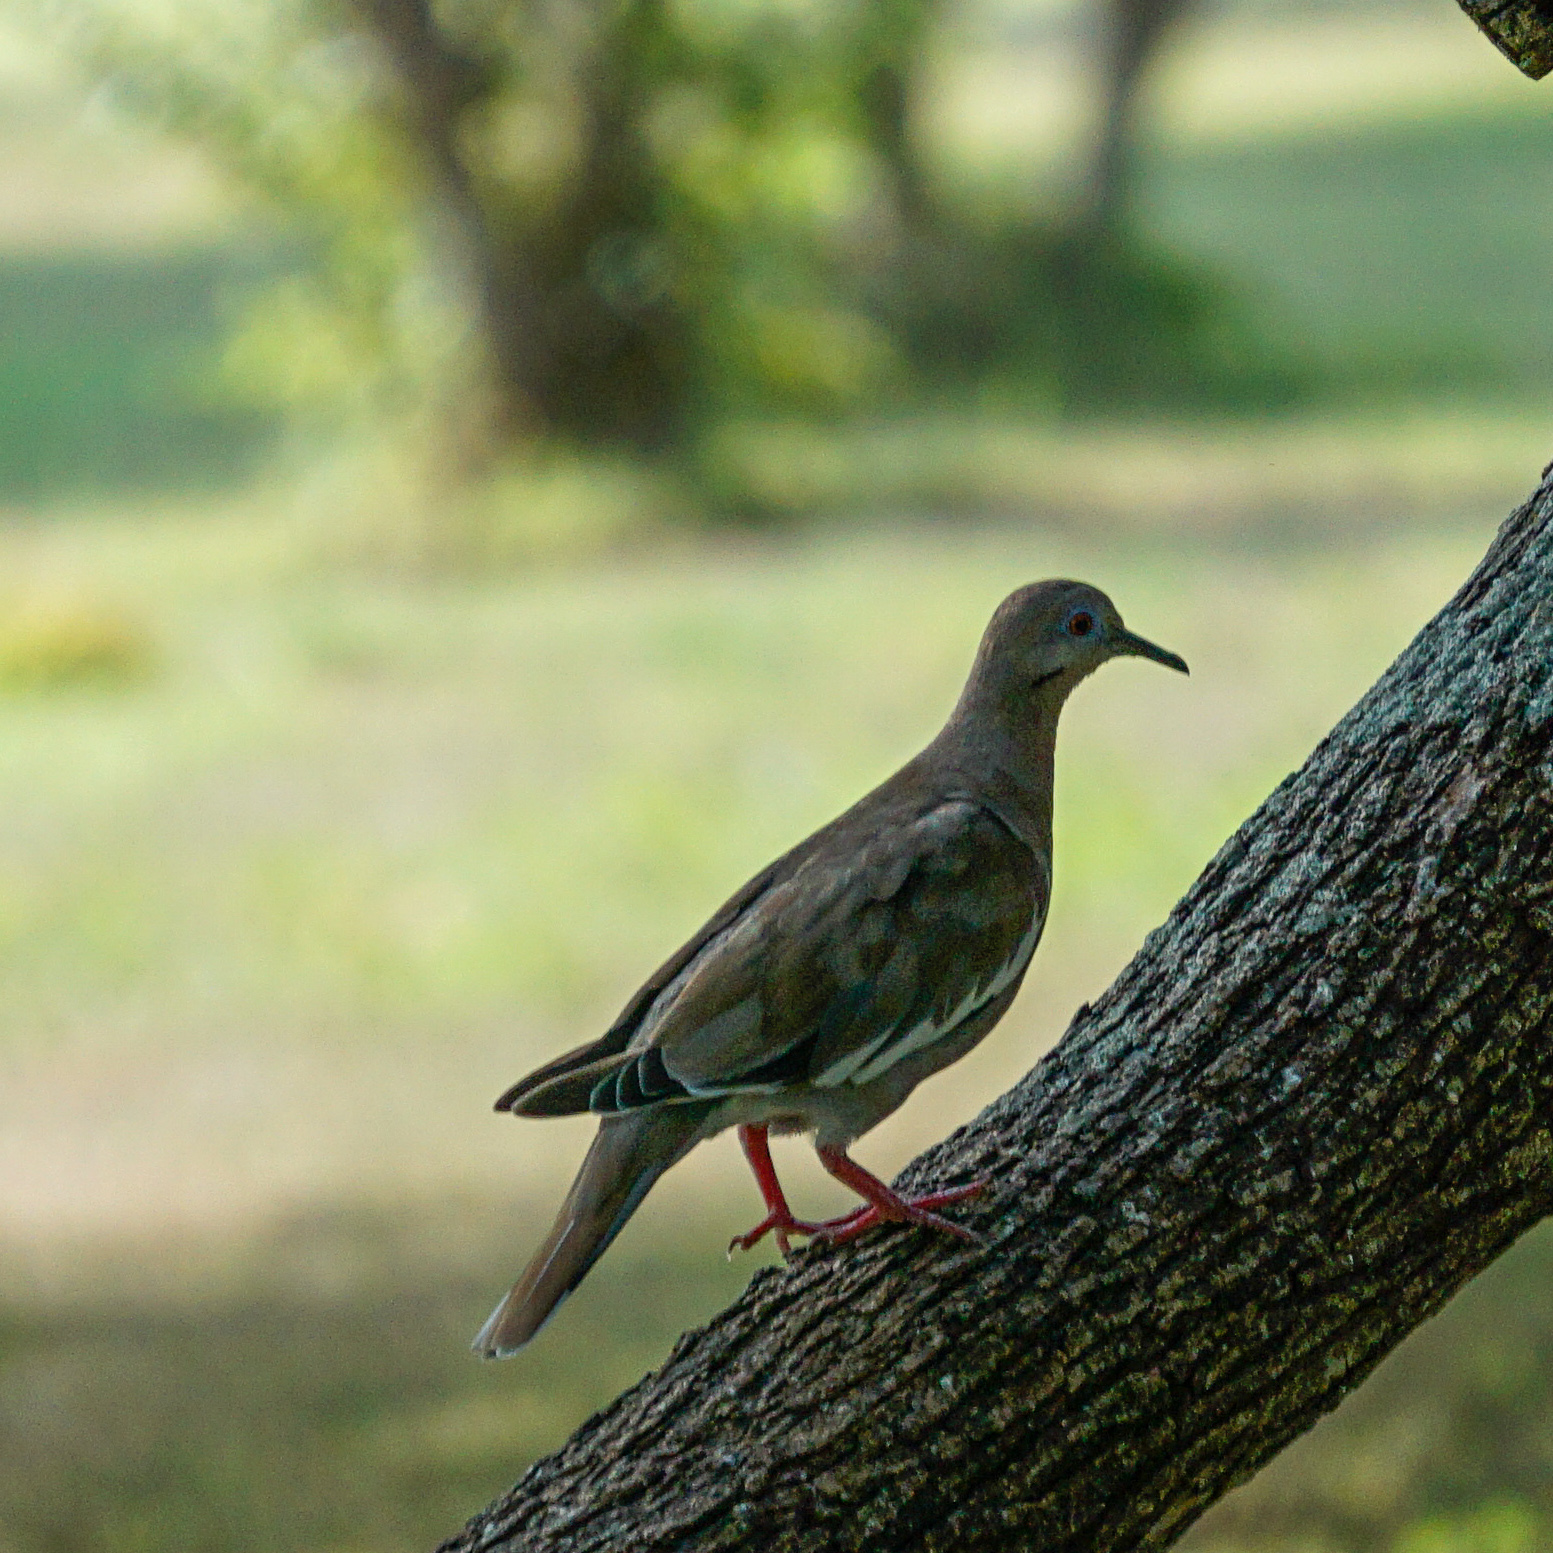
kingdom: Animalia
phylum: Chordata
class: Aves
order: Columbiformes
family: Columbidae
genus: Zenaida
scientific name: Zenaida asiatica
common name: White-winged dove
